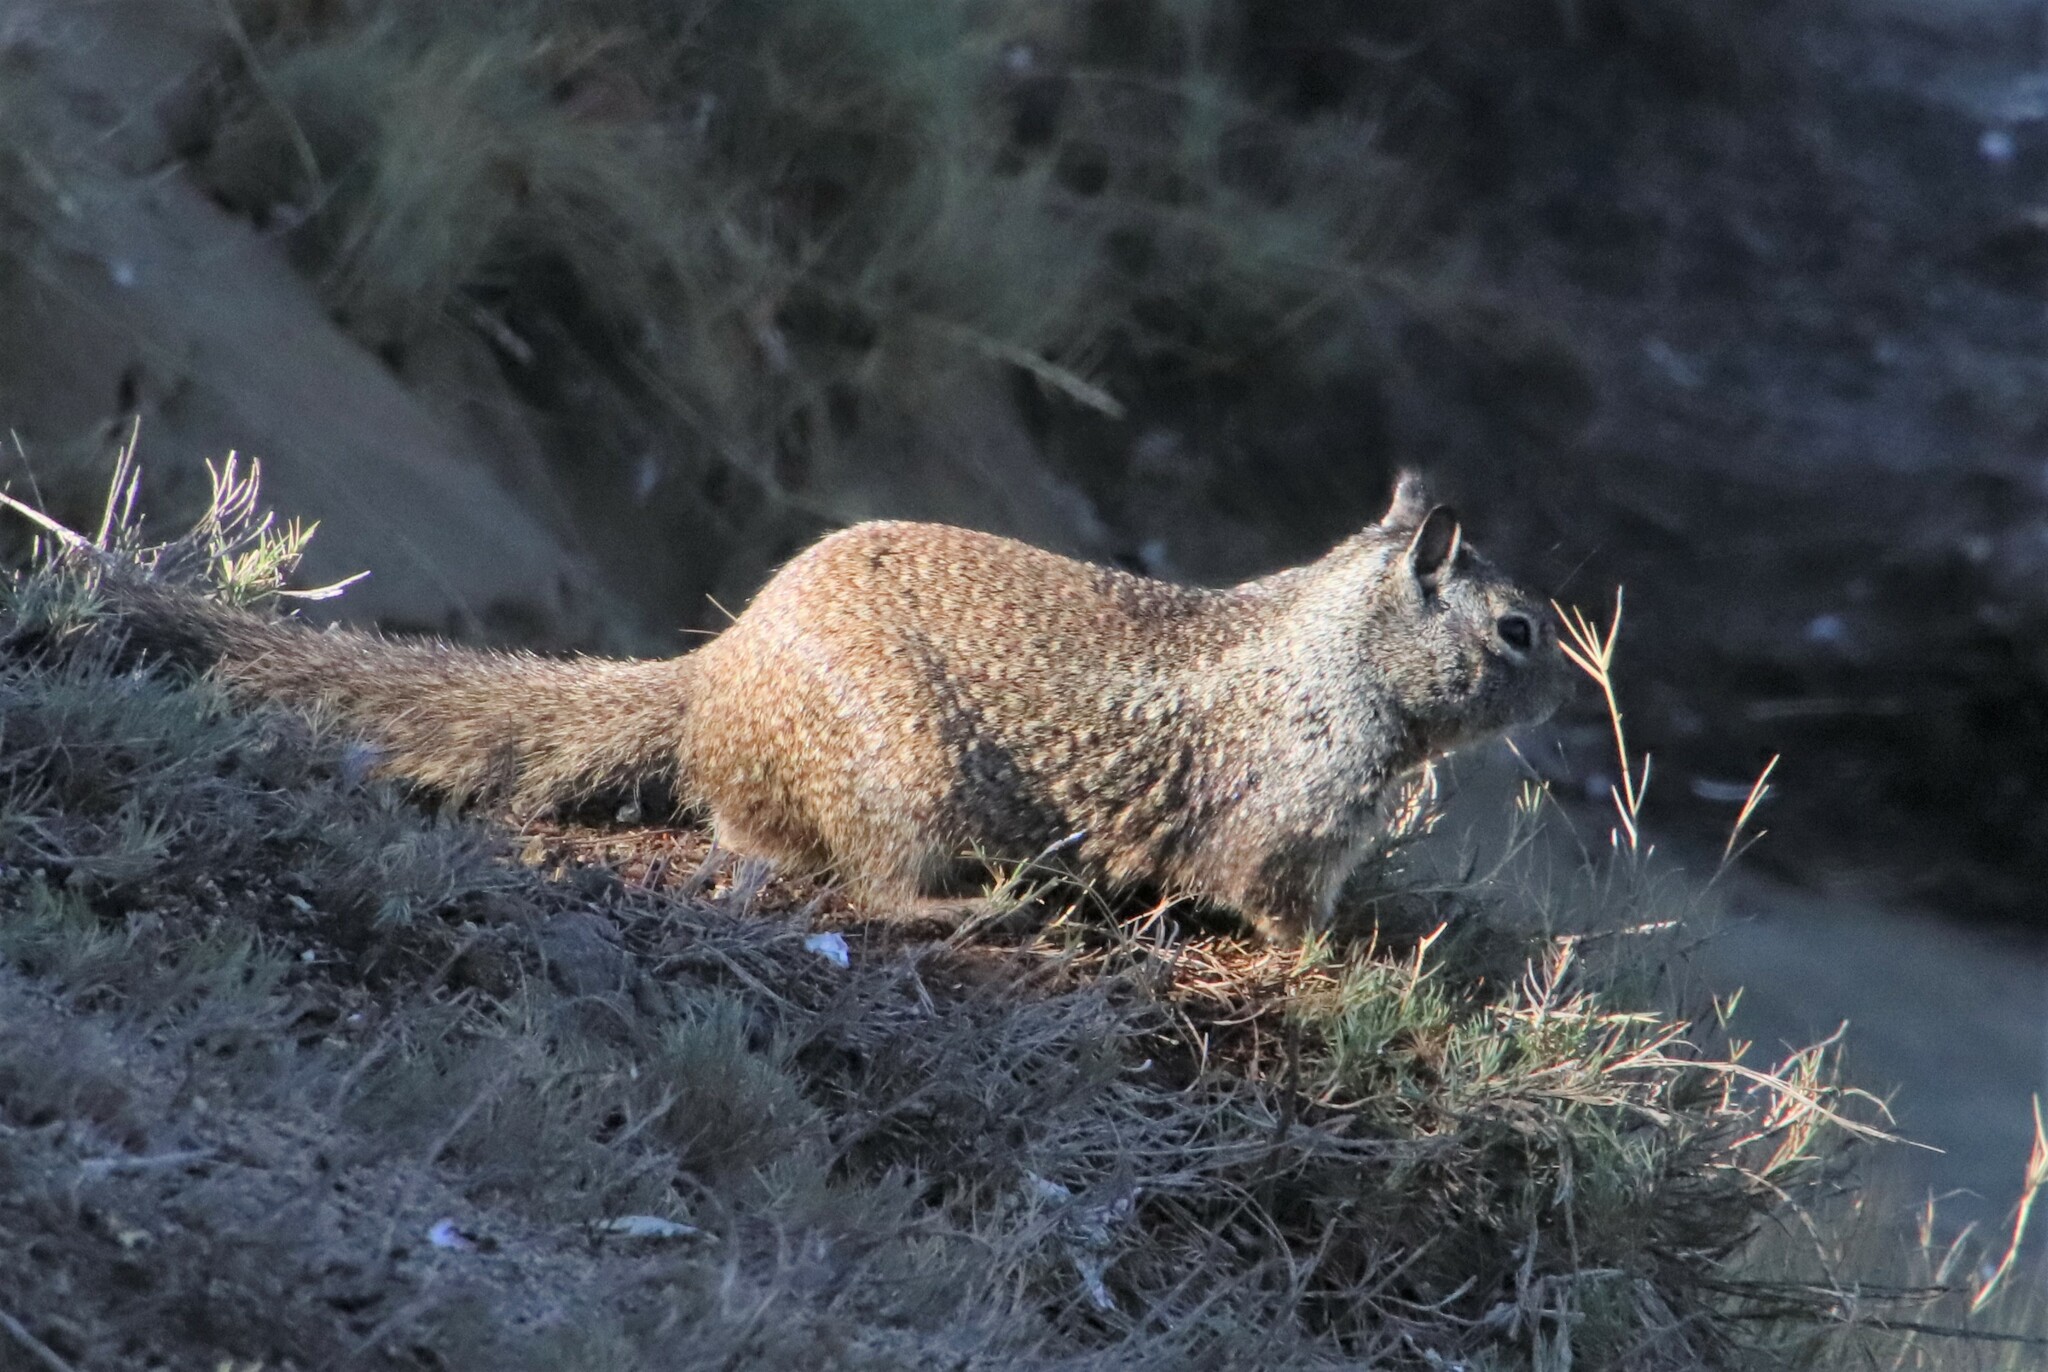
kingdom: Animalia
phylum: Chordata
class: Mammalia
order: Rodentia
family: Sciuridae
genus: Otospermophilus
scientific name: Otospermophilus beecheyi
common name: California ground squirrel
